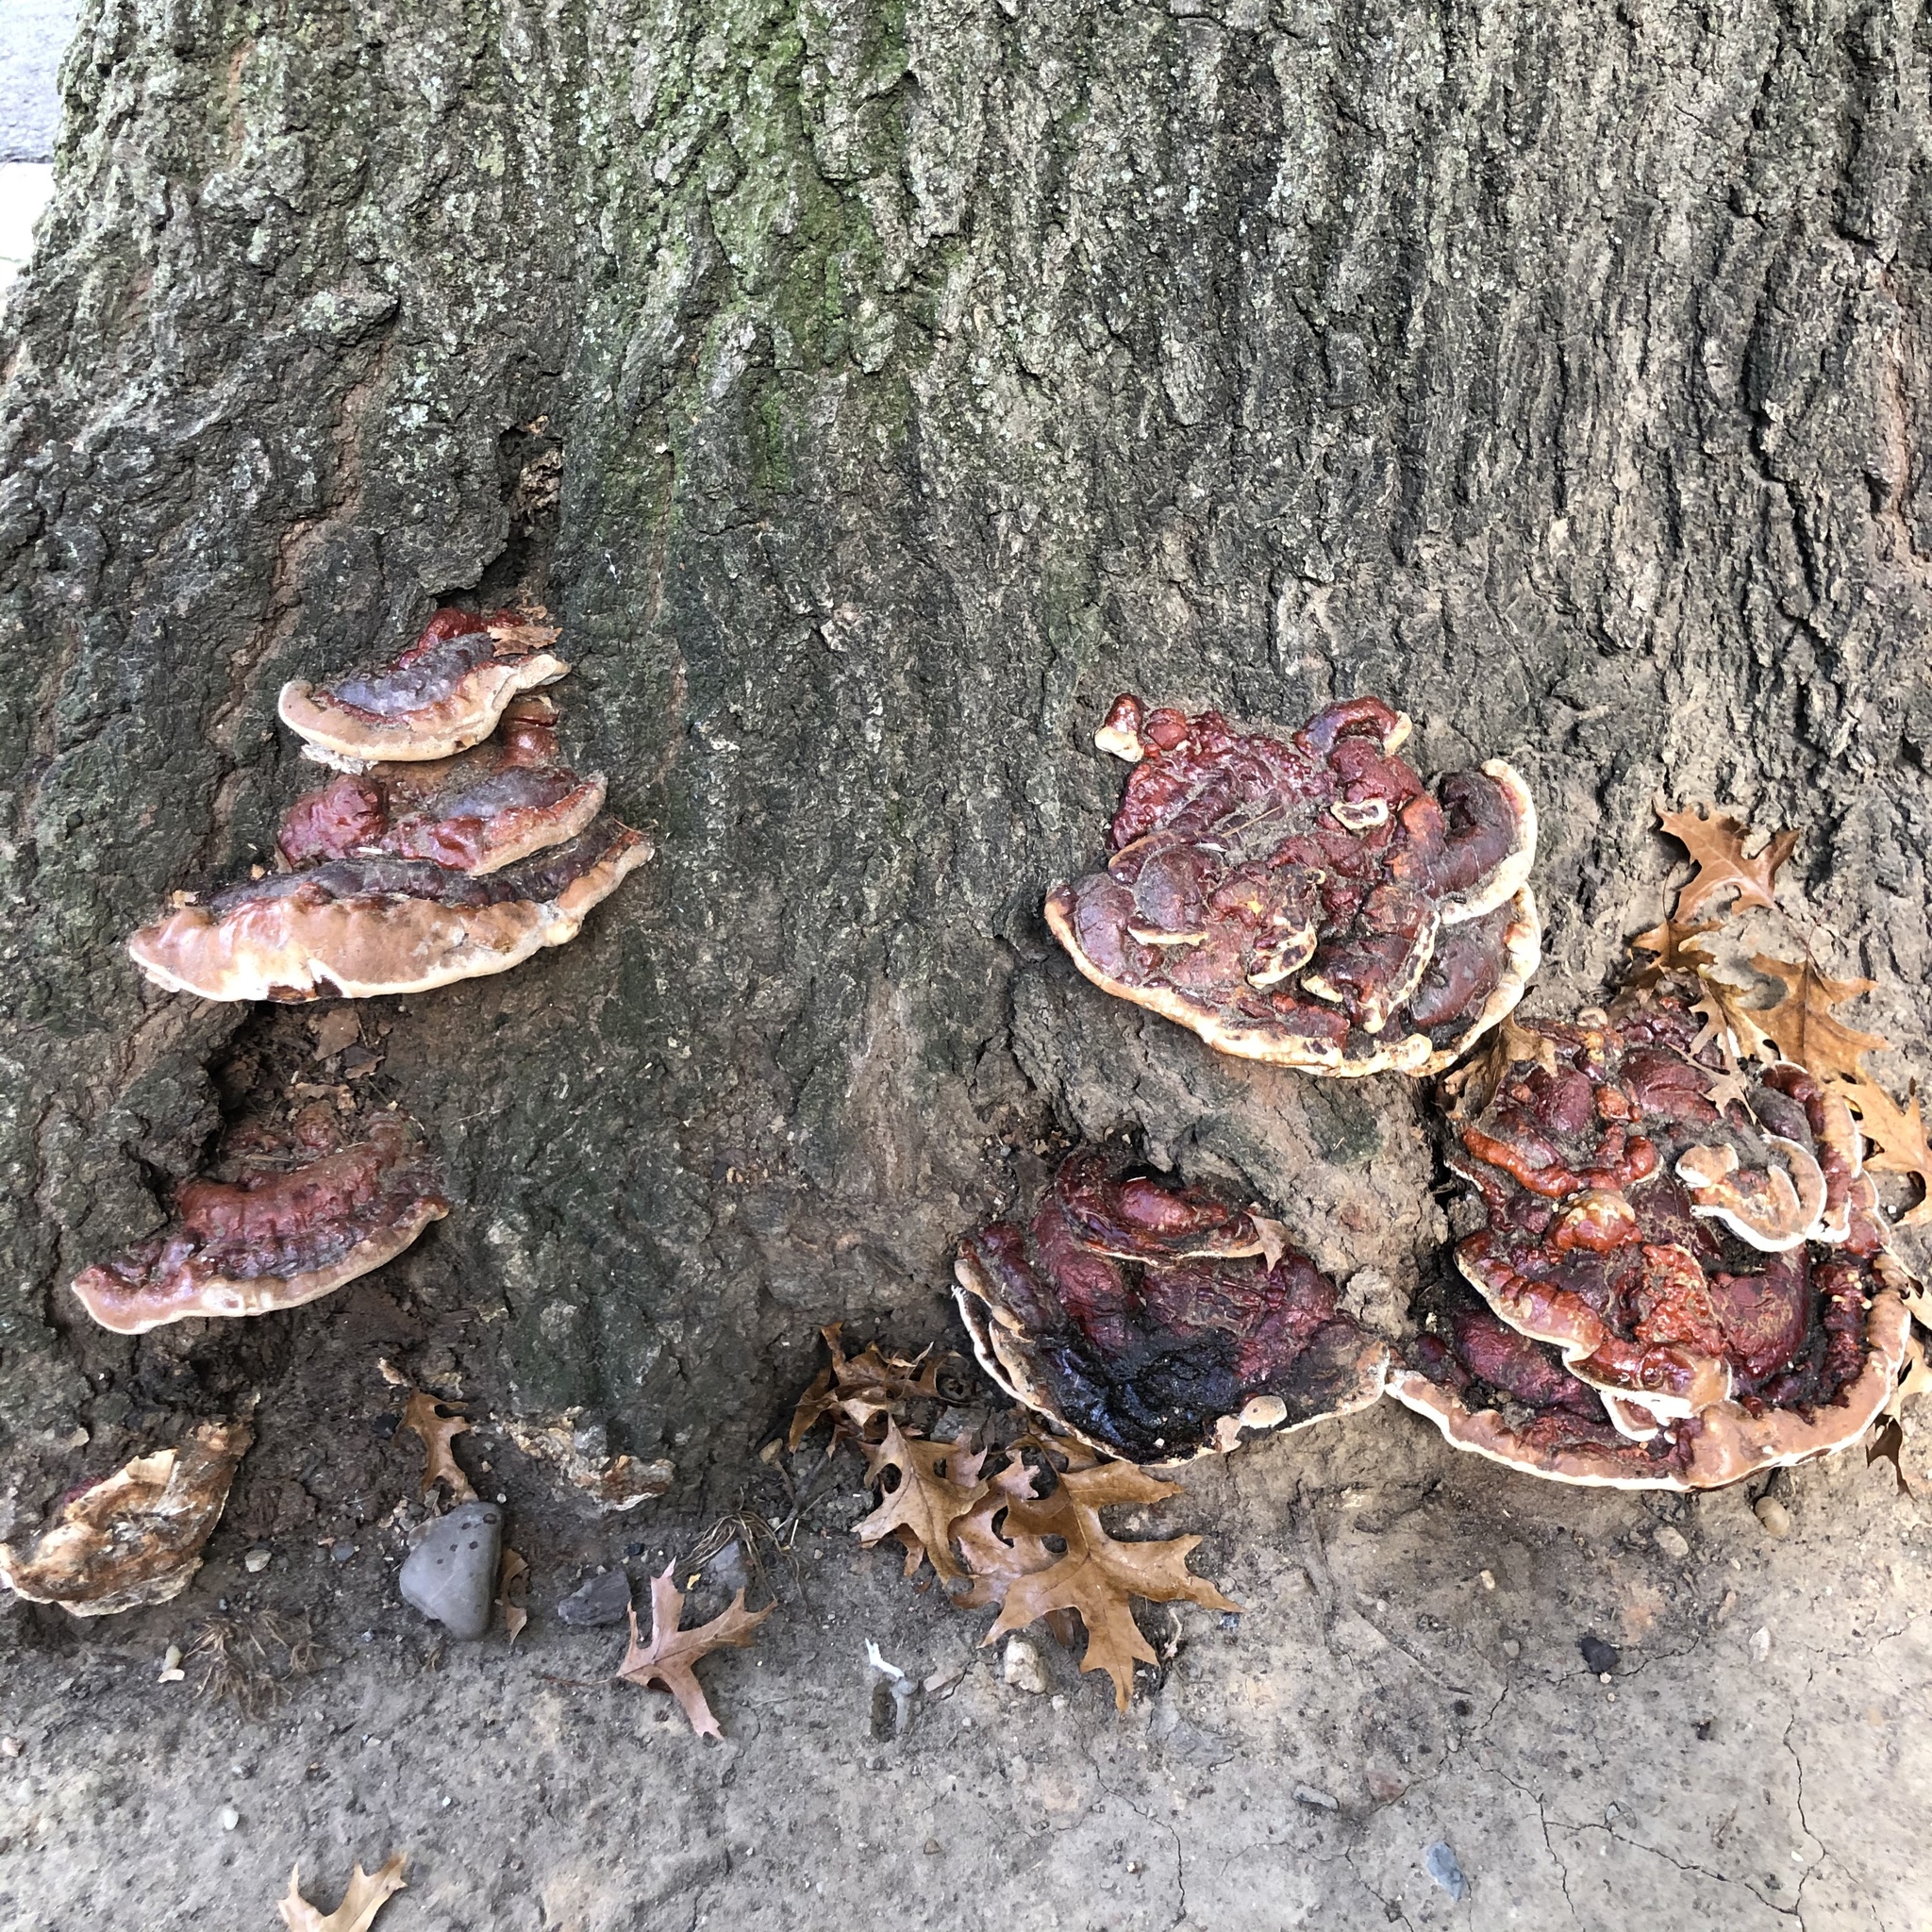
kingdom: Fungi
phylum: Basidiomycota
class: Agaricomycetes
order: Polyporales
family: Polyporaceae
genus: Ganoderma
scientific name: Ganoderma resinaceum
